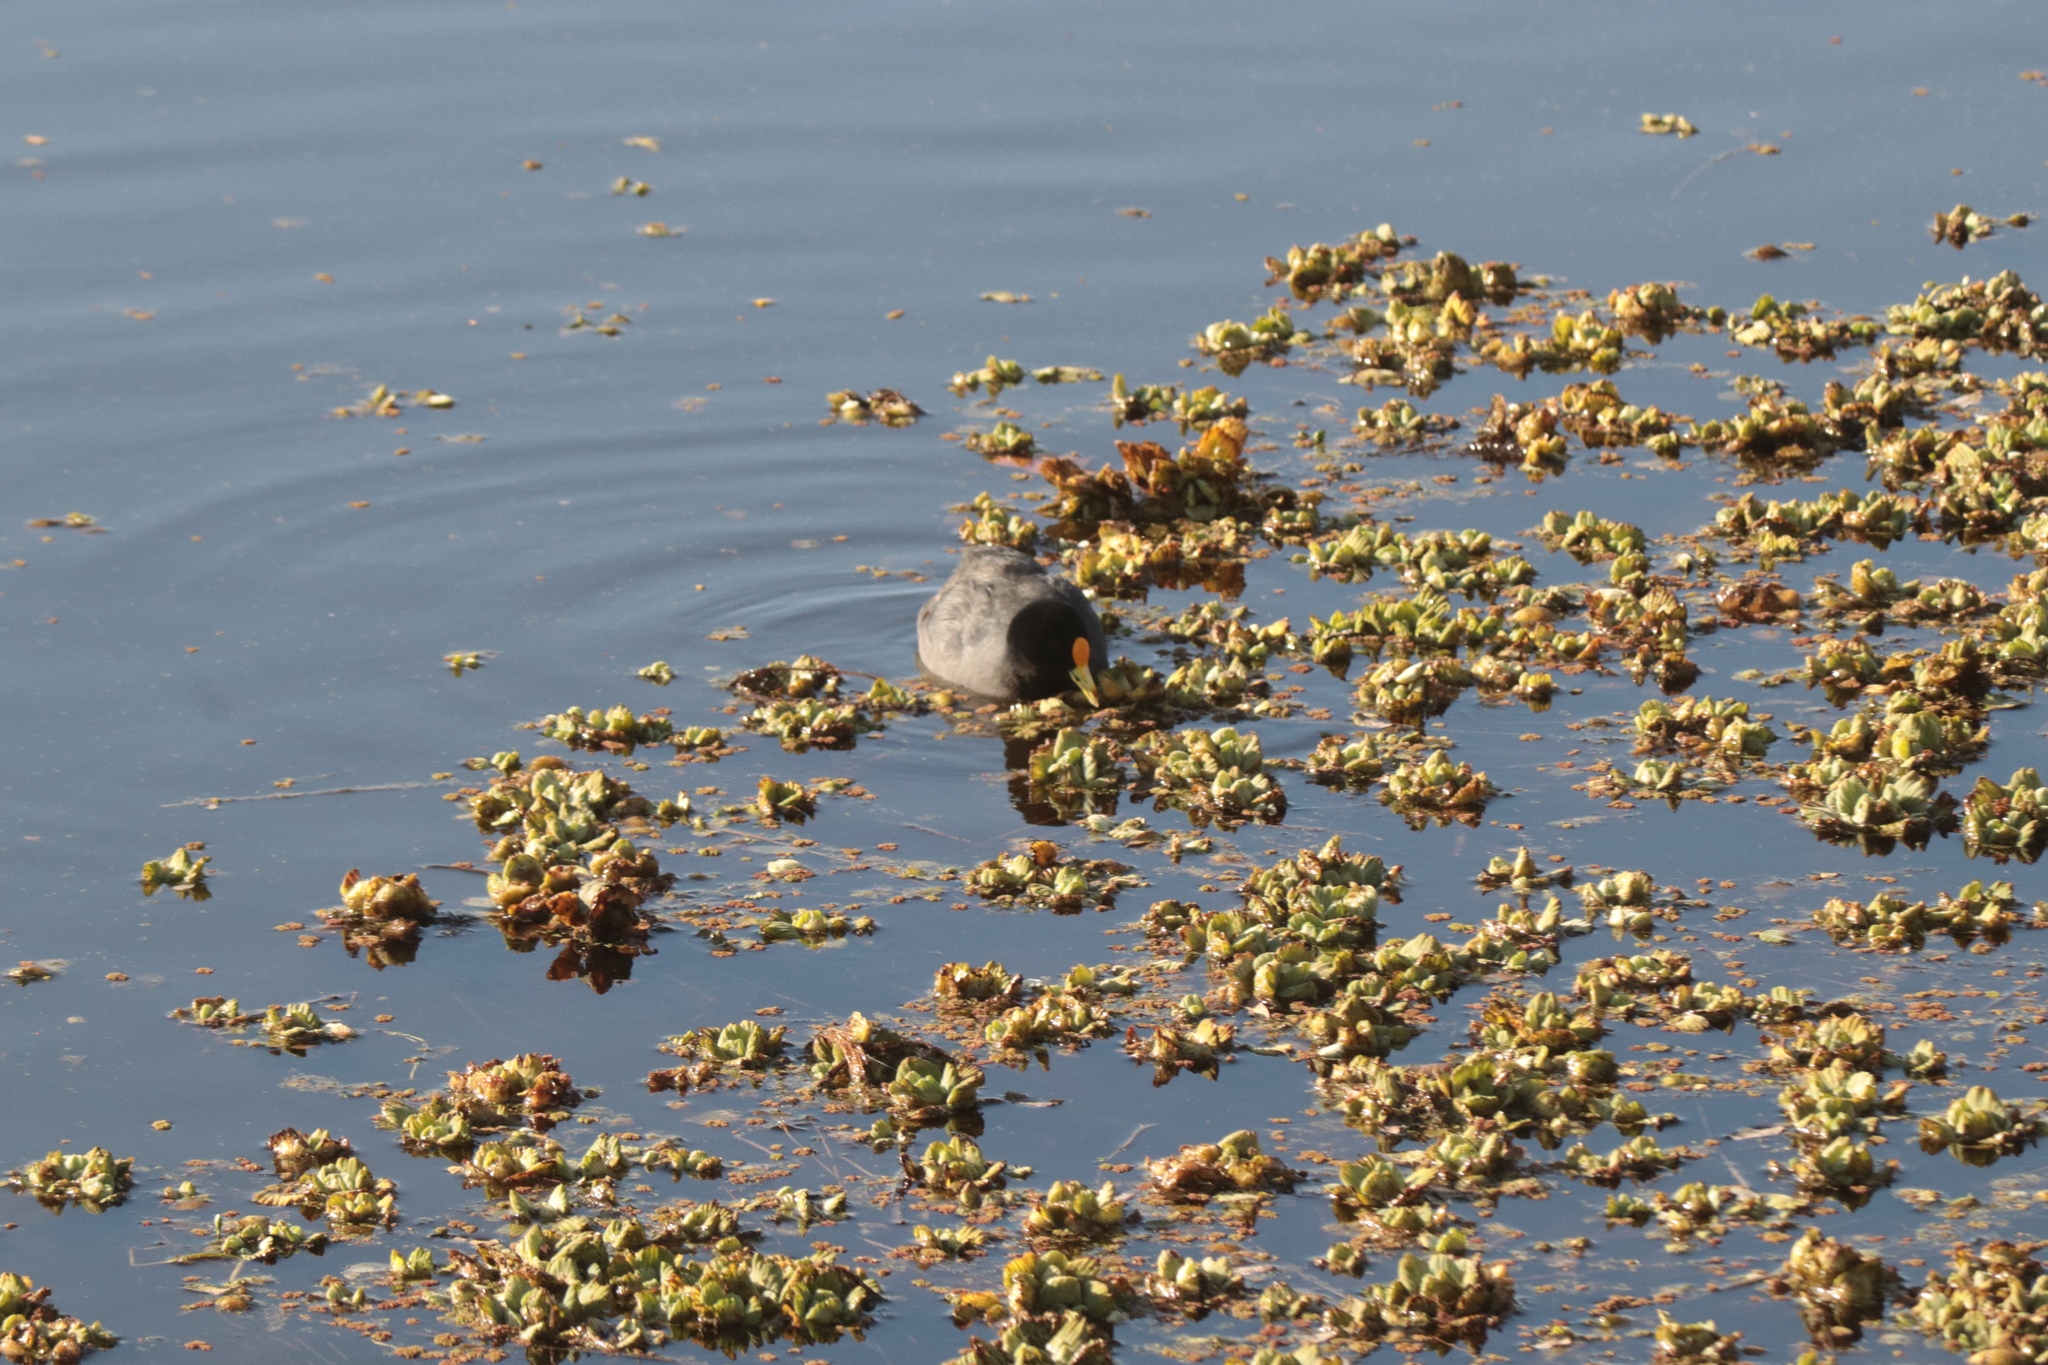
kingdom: Animalia
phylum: Chordata
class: Aves
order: Gruiformes
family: Rallidae
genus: Fulica
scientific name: Fulica leucoptera
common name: White-winged coot
